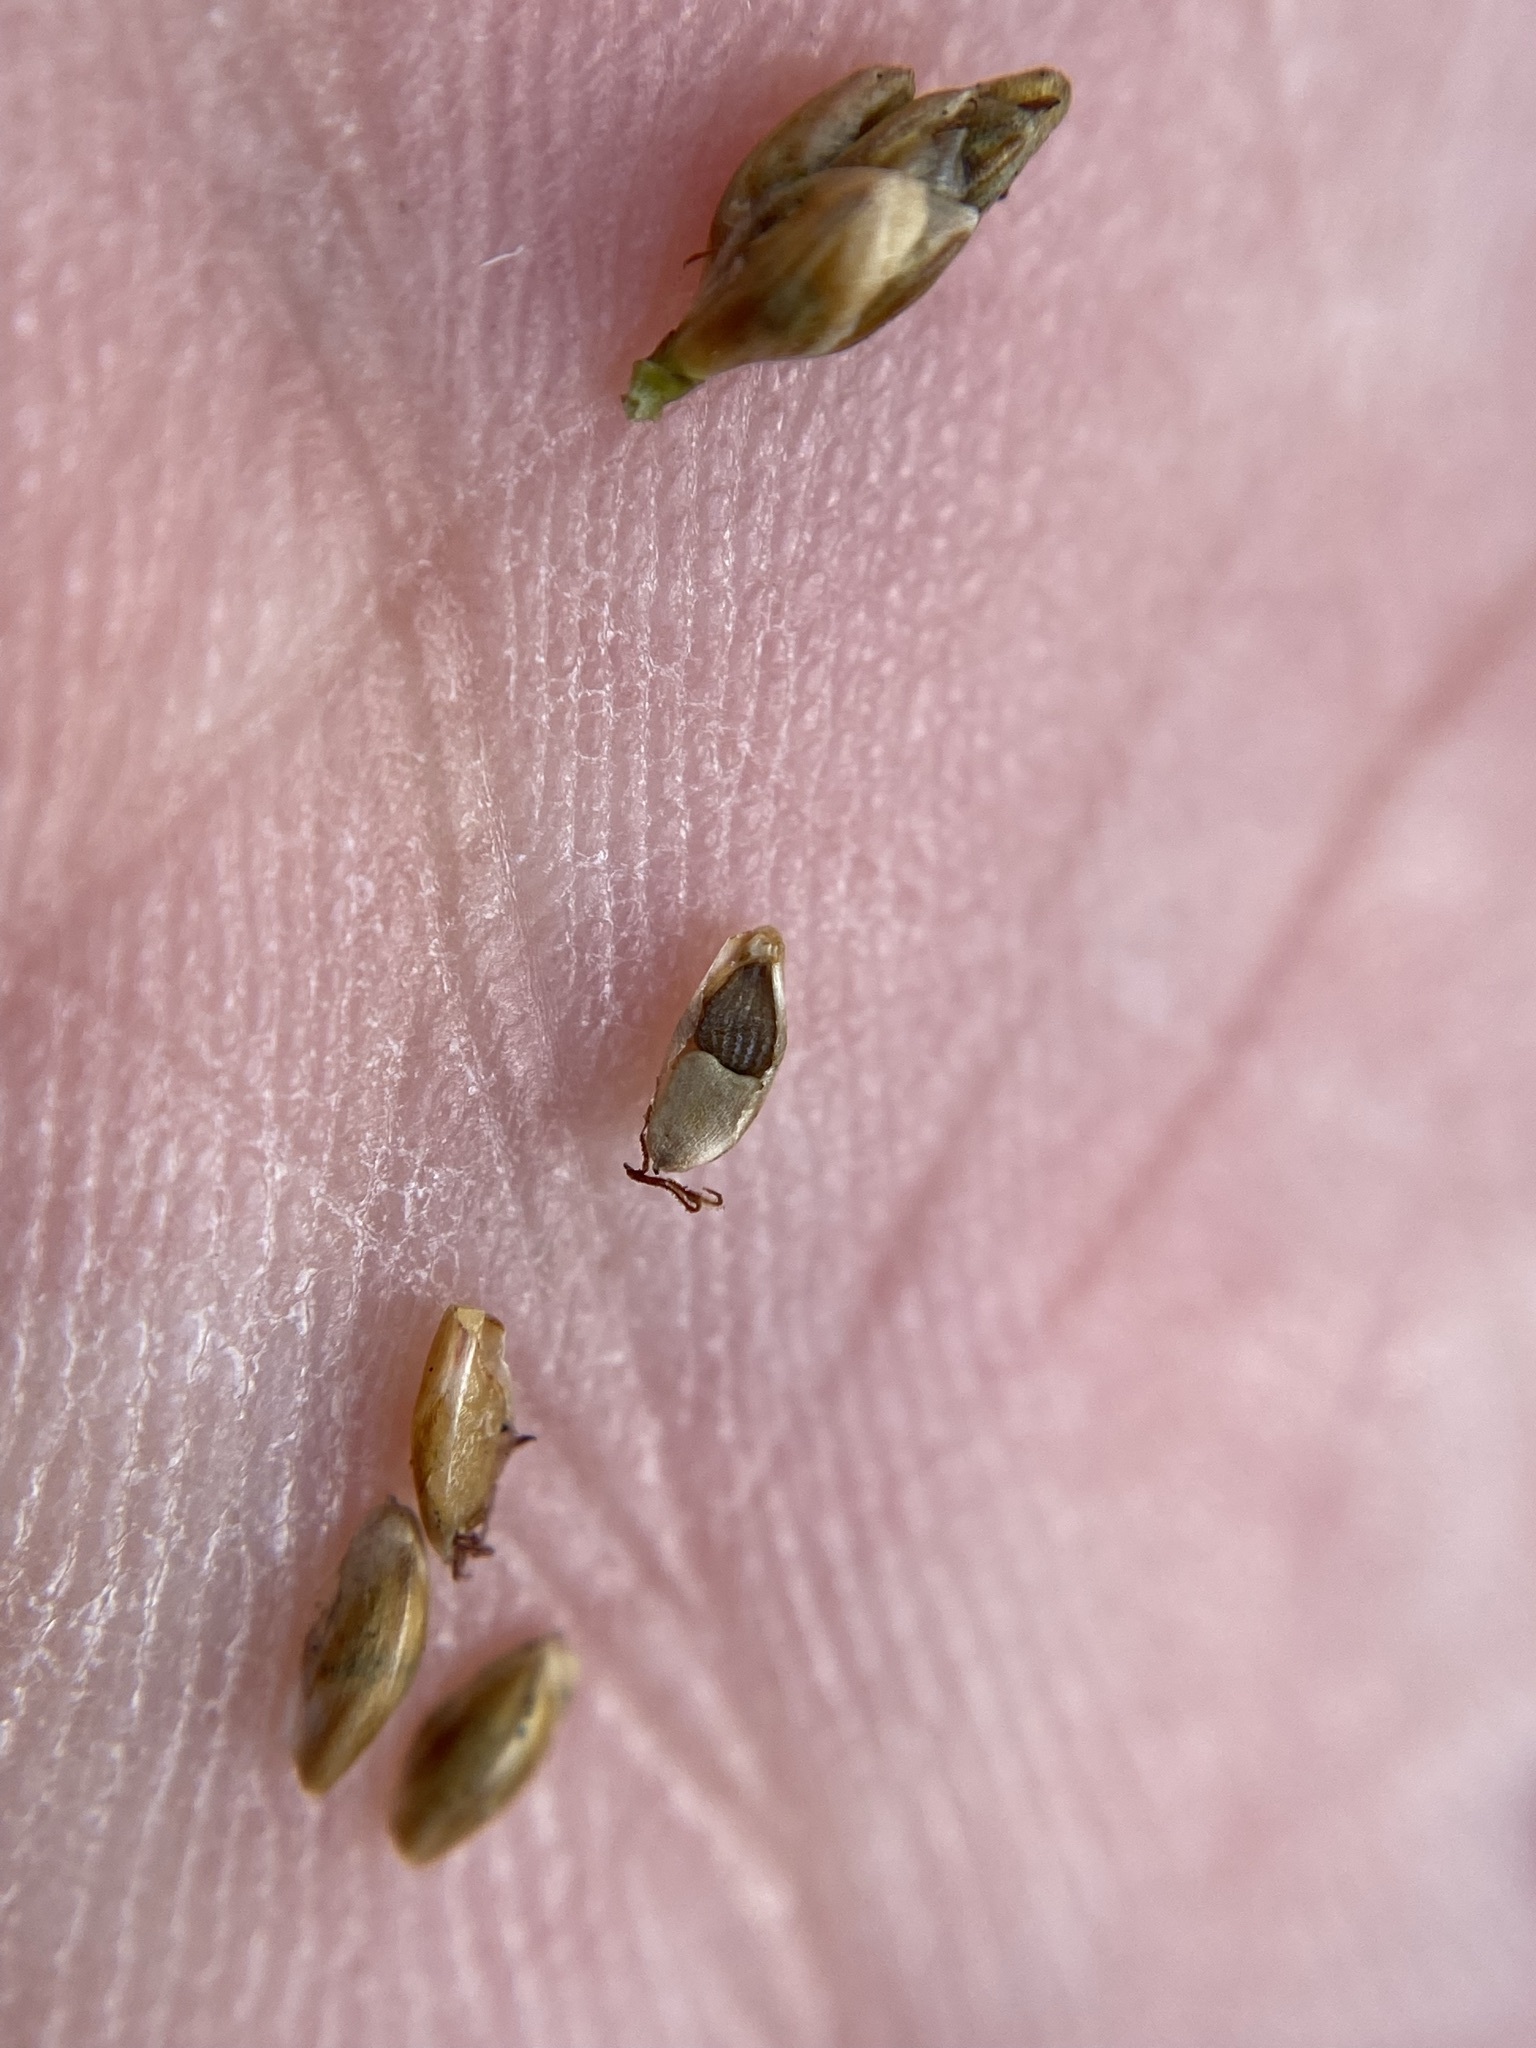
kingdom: Plantae
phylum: Tracheophyta
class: Liliopsida
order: Poales
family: Cyperaceae
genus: Rhynchospora
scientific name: Rhynchospora elliottii
